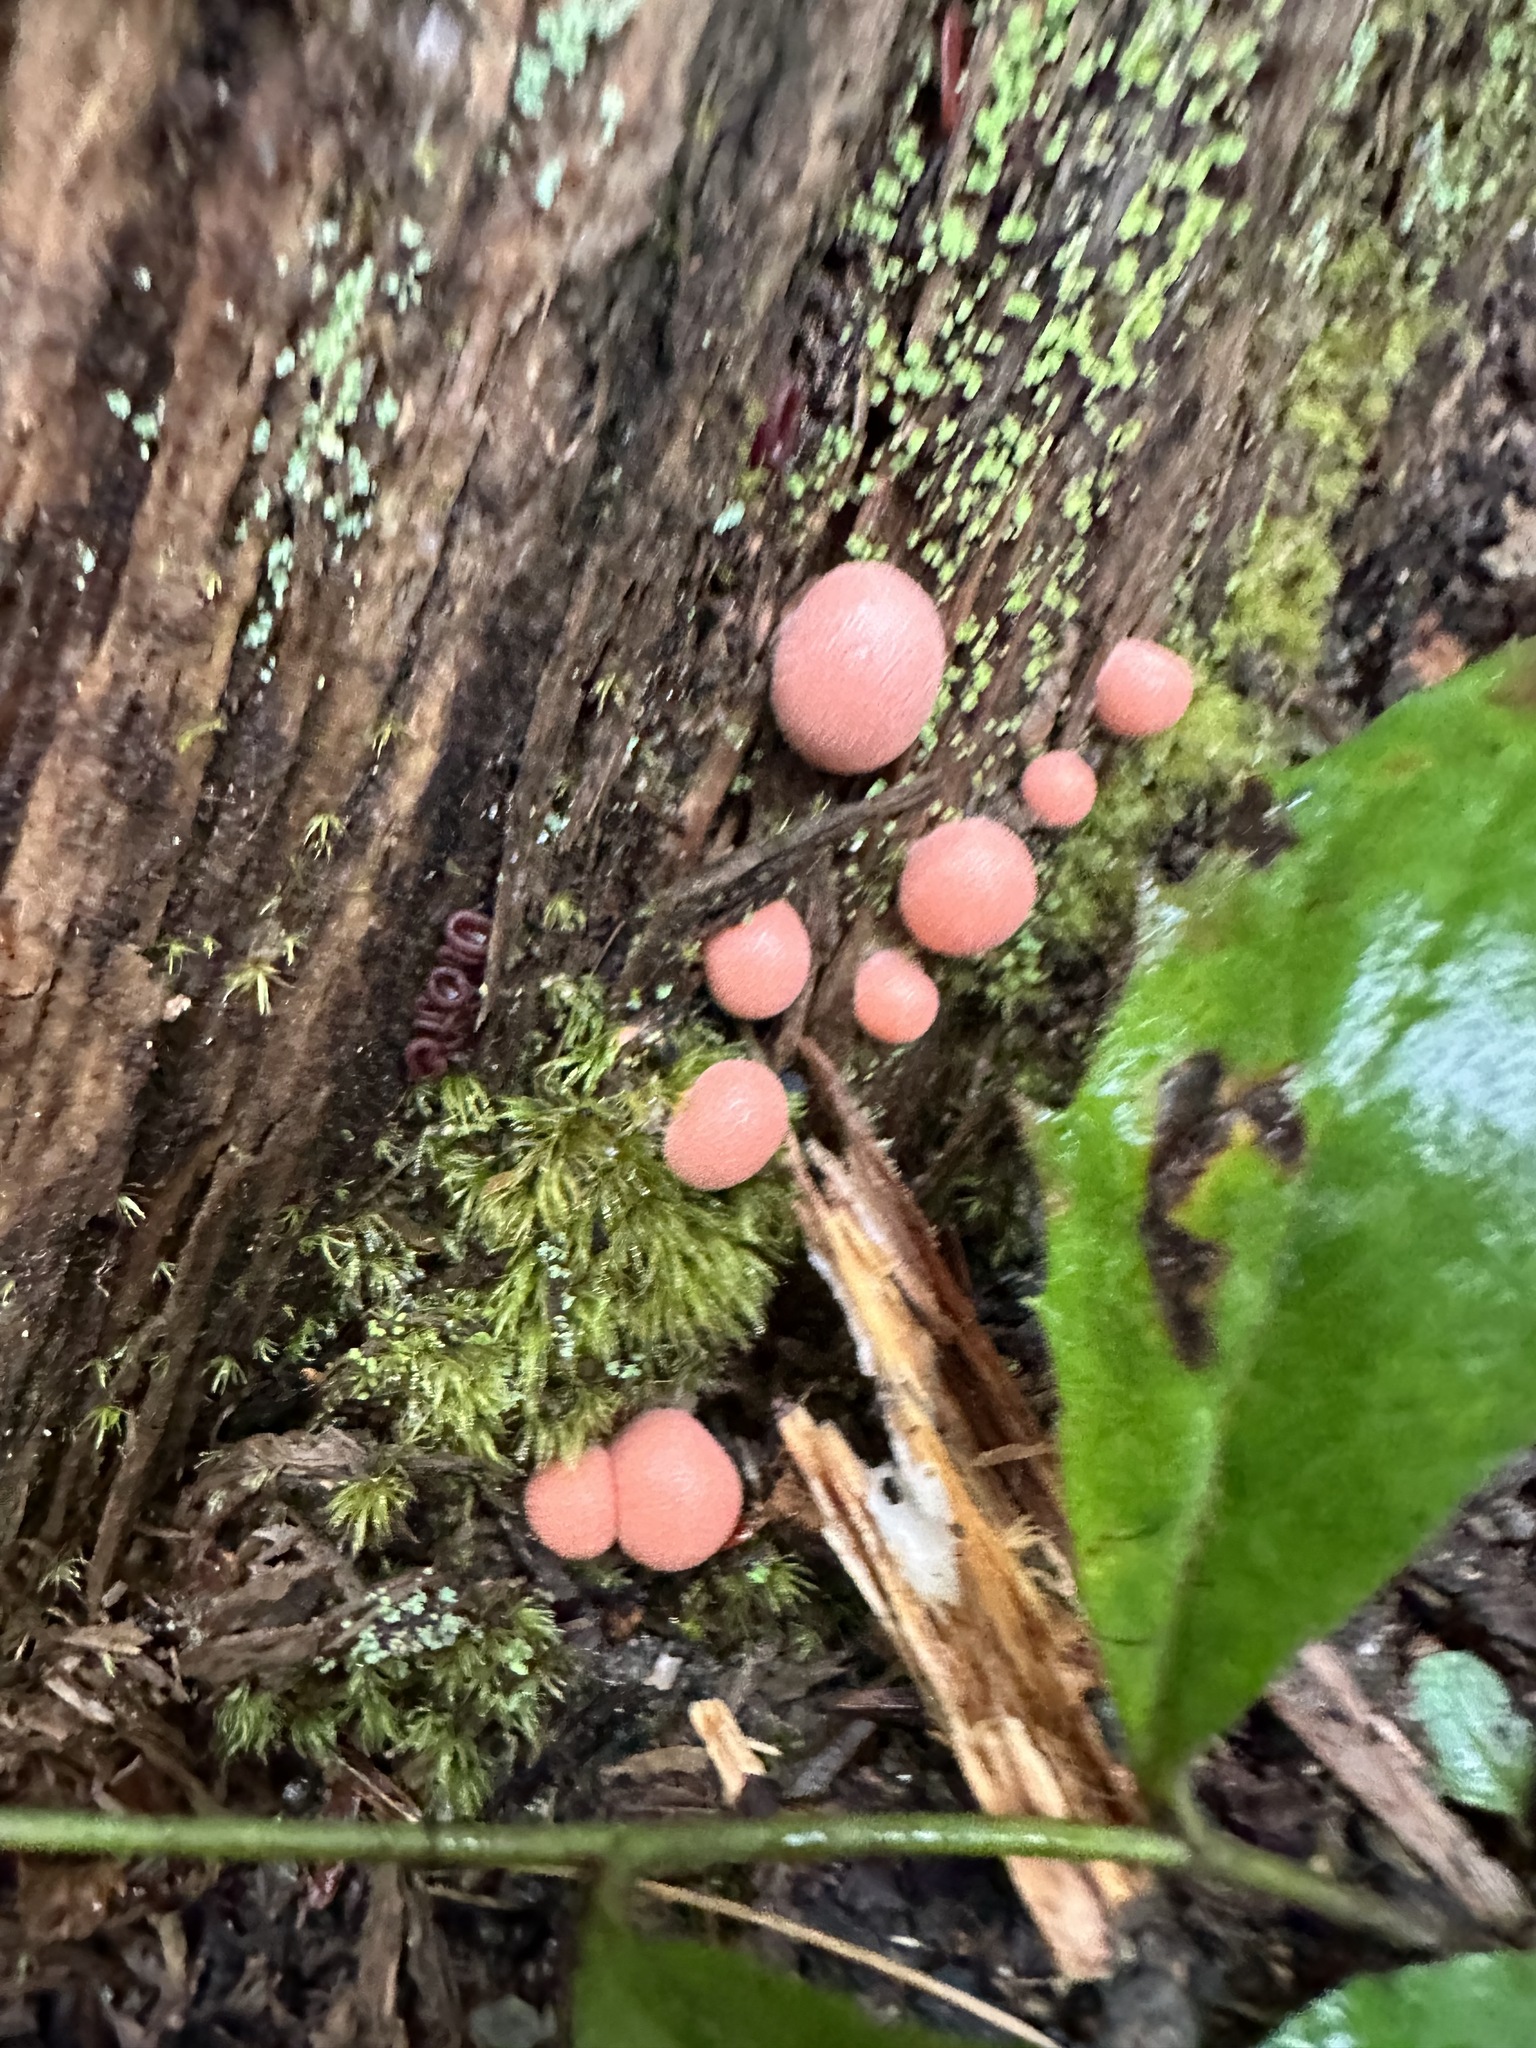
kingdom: Protozoa
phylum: Mycetozoa
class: Myxomycetes
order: Cribrariales
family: Tubiferaceae
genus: Lycogala
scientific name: Lycogala epidendrum
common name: Wolf's milk
